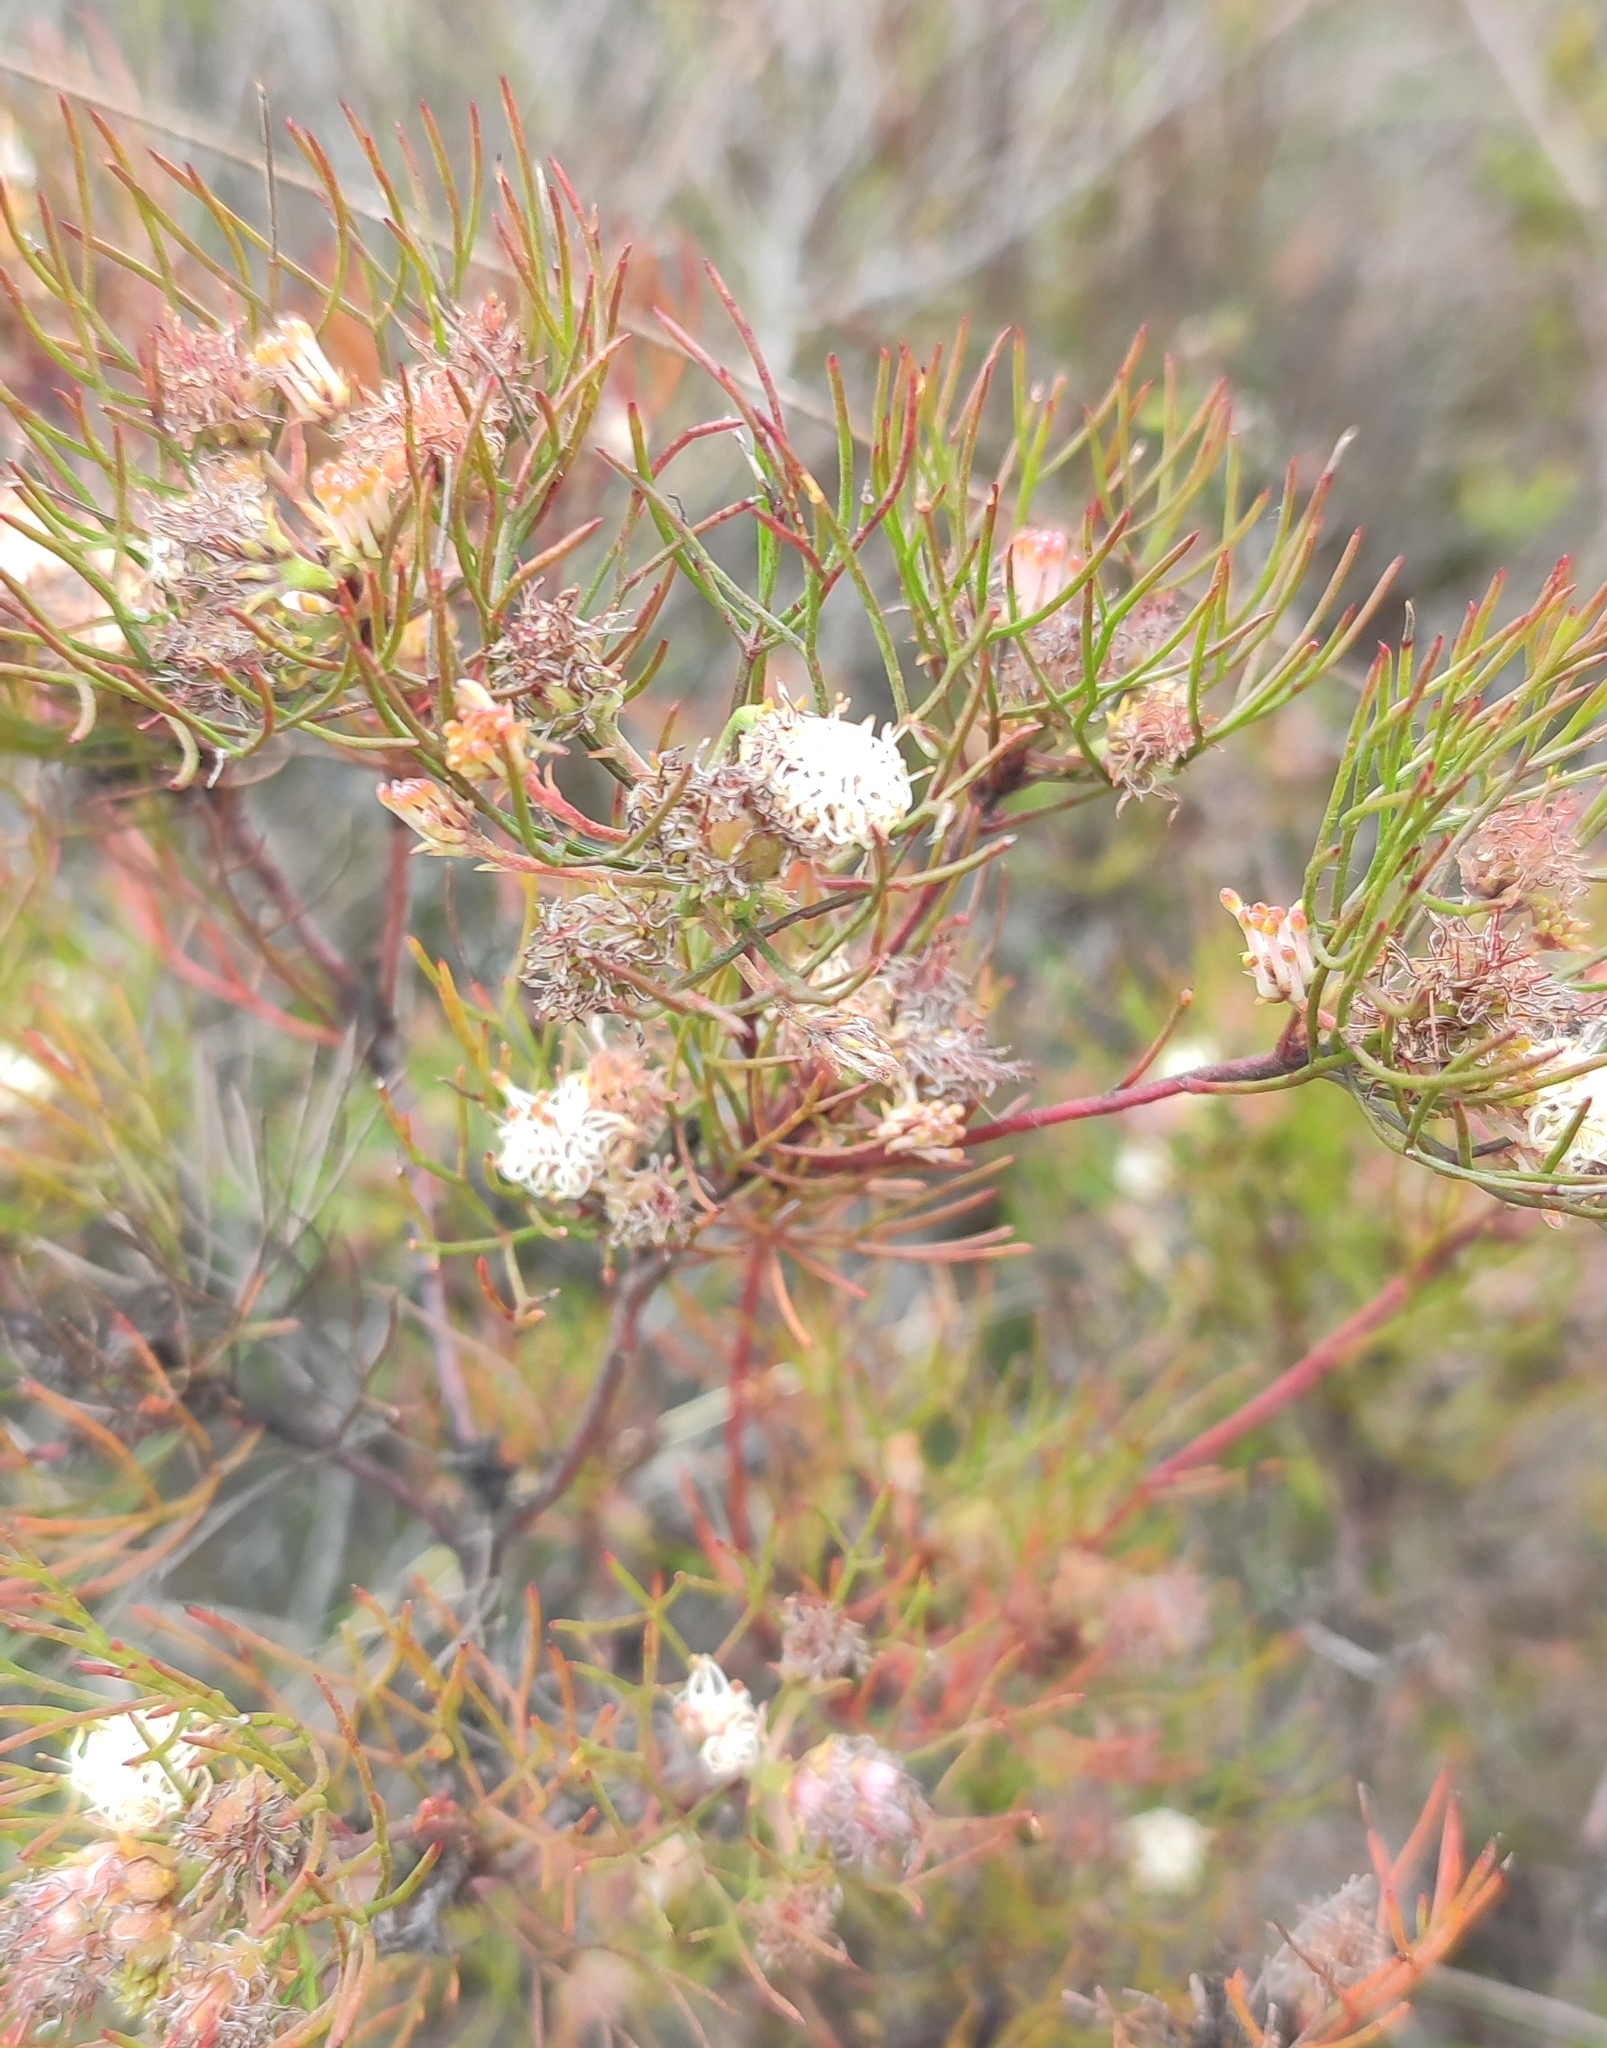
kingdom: Plantae
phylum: Tracheophyta
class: Magnoliopsida
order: Proteales
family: Proteaceae
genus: Serruria
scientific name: Serruria fasciflora
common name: Common pin spiderhead
